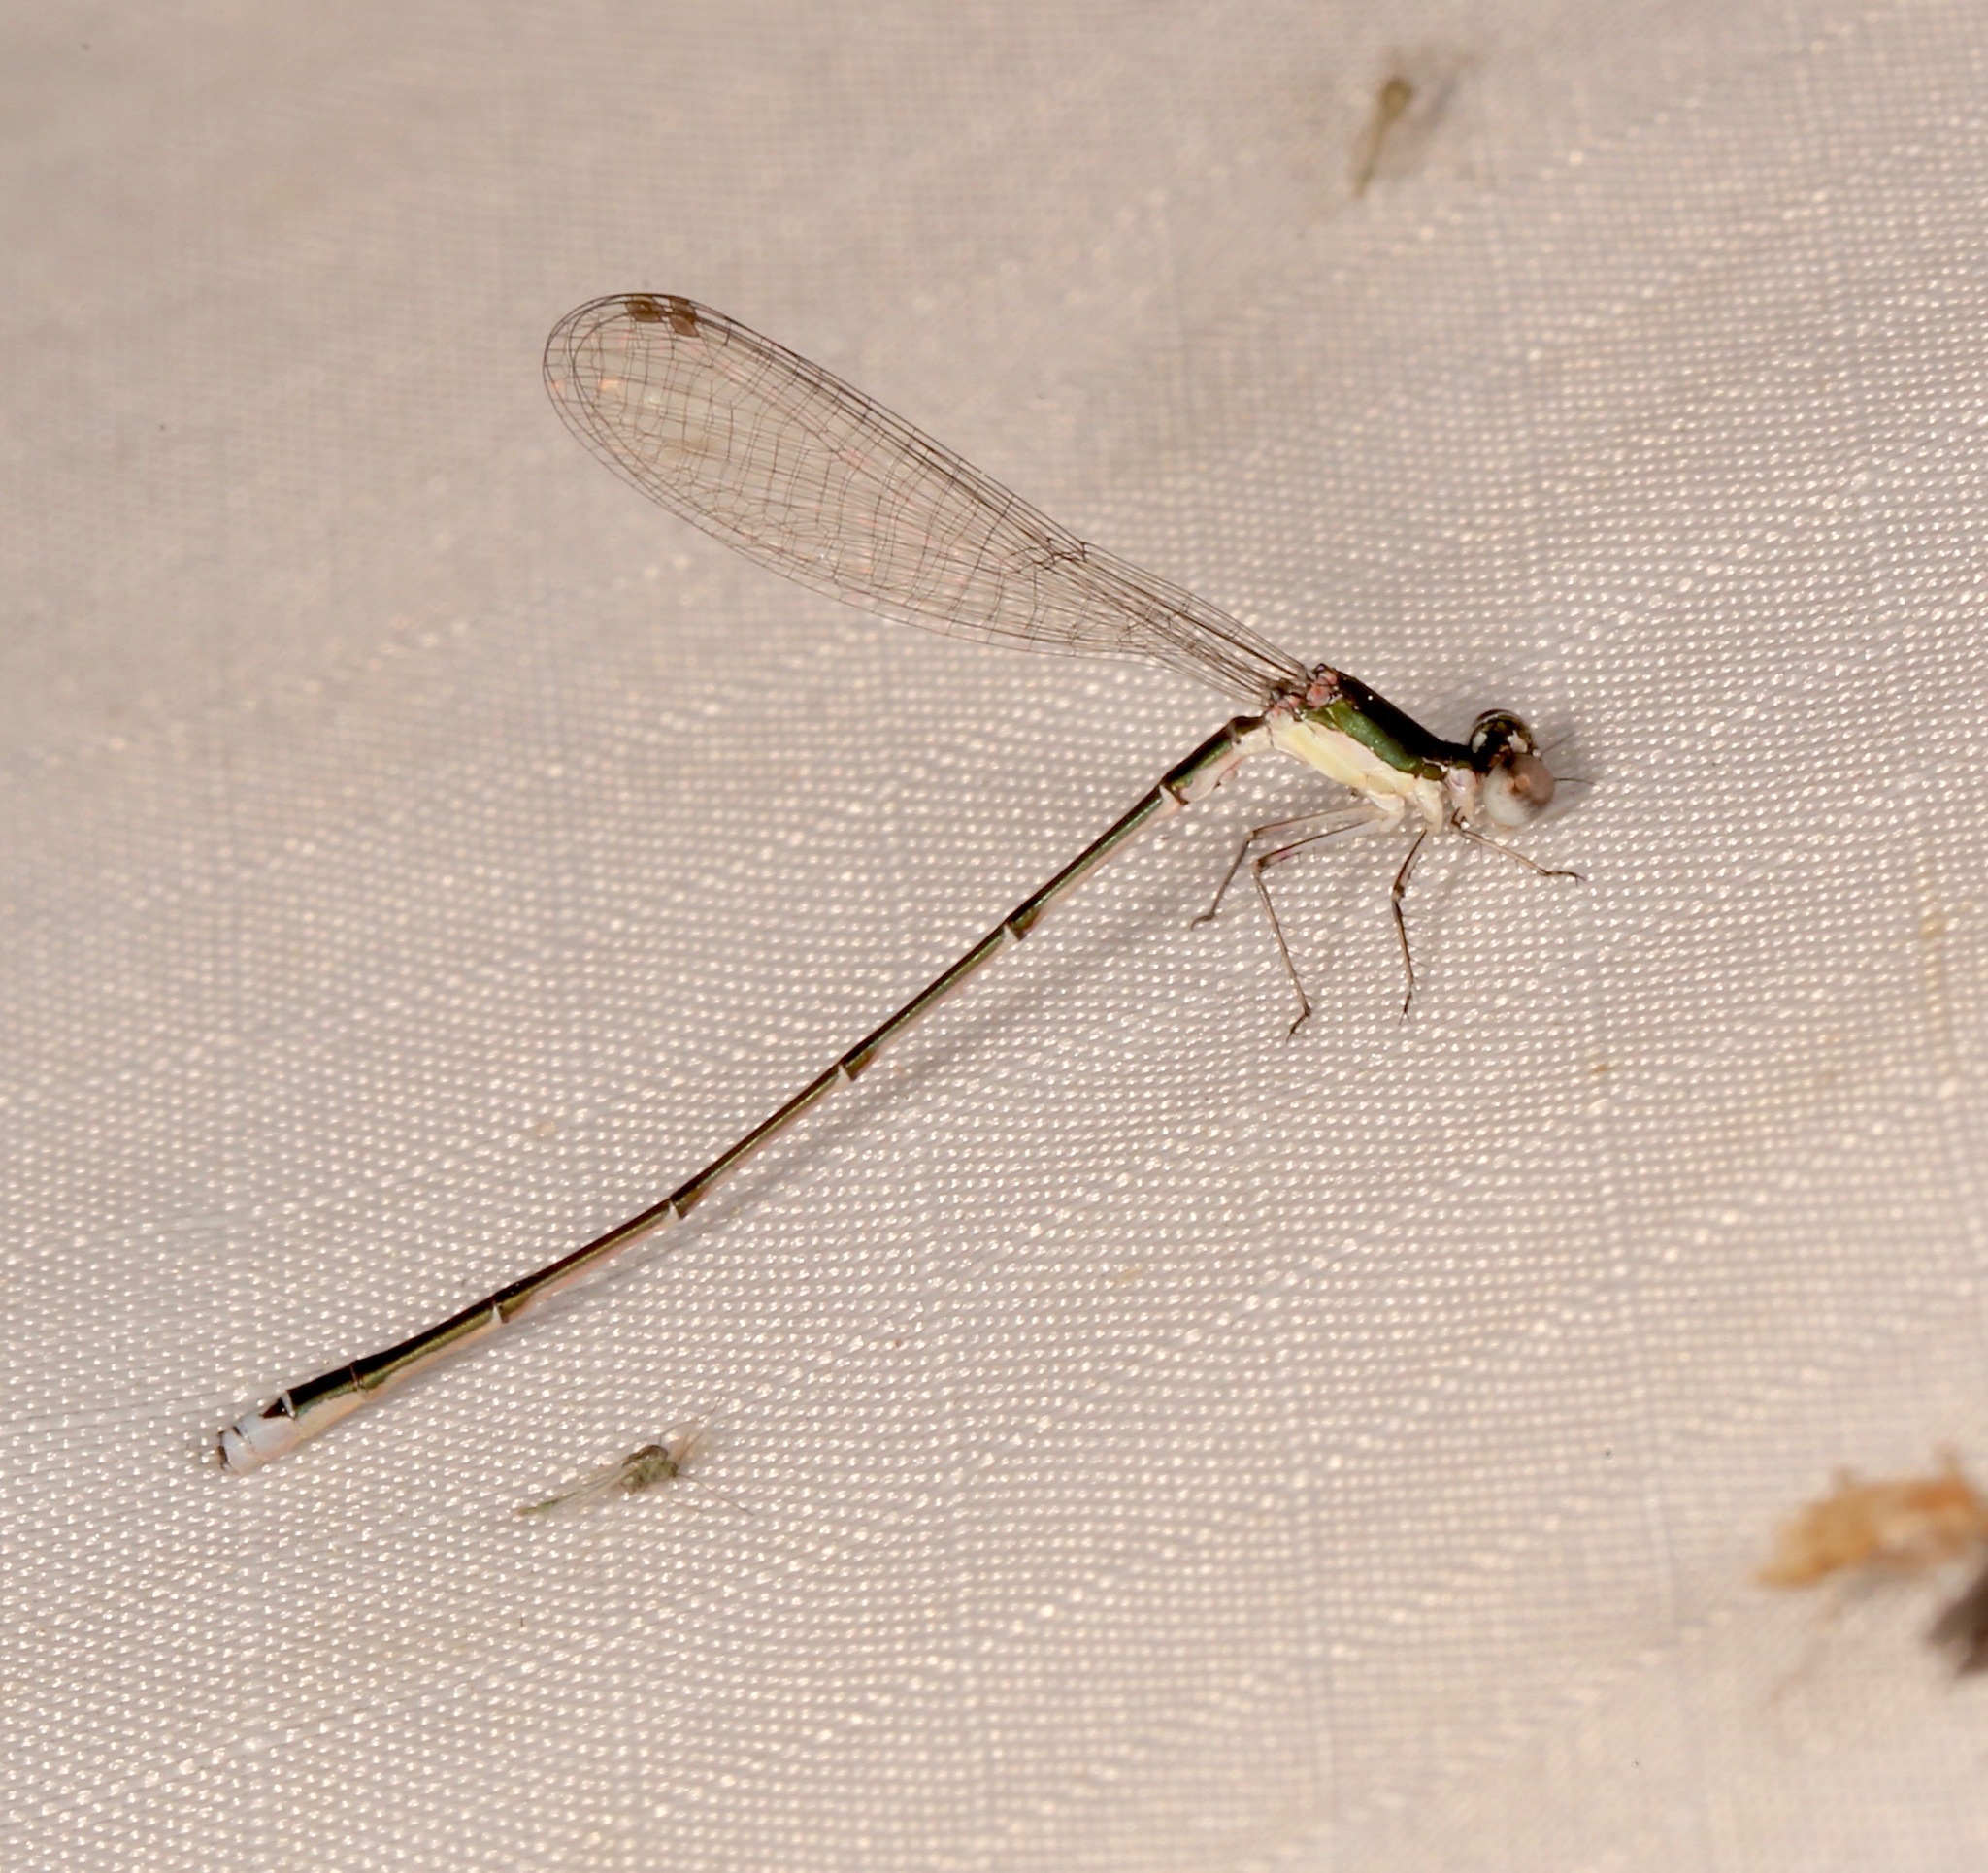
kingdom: Animalia
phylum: Arthropoda
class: Insecta
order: Odonata
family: Coenagrionidae
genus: Nehalennia
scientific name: Nehalennia integricollis
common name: Southern sprite
